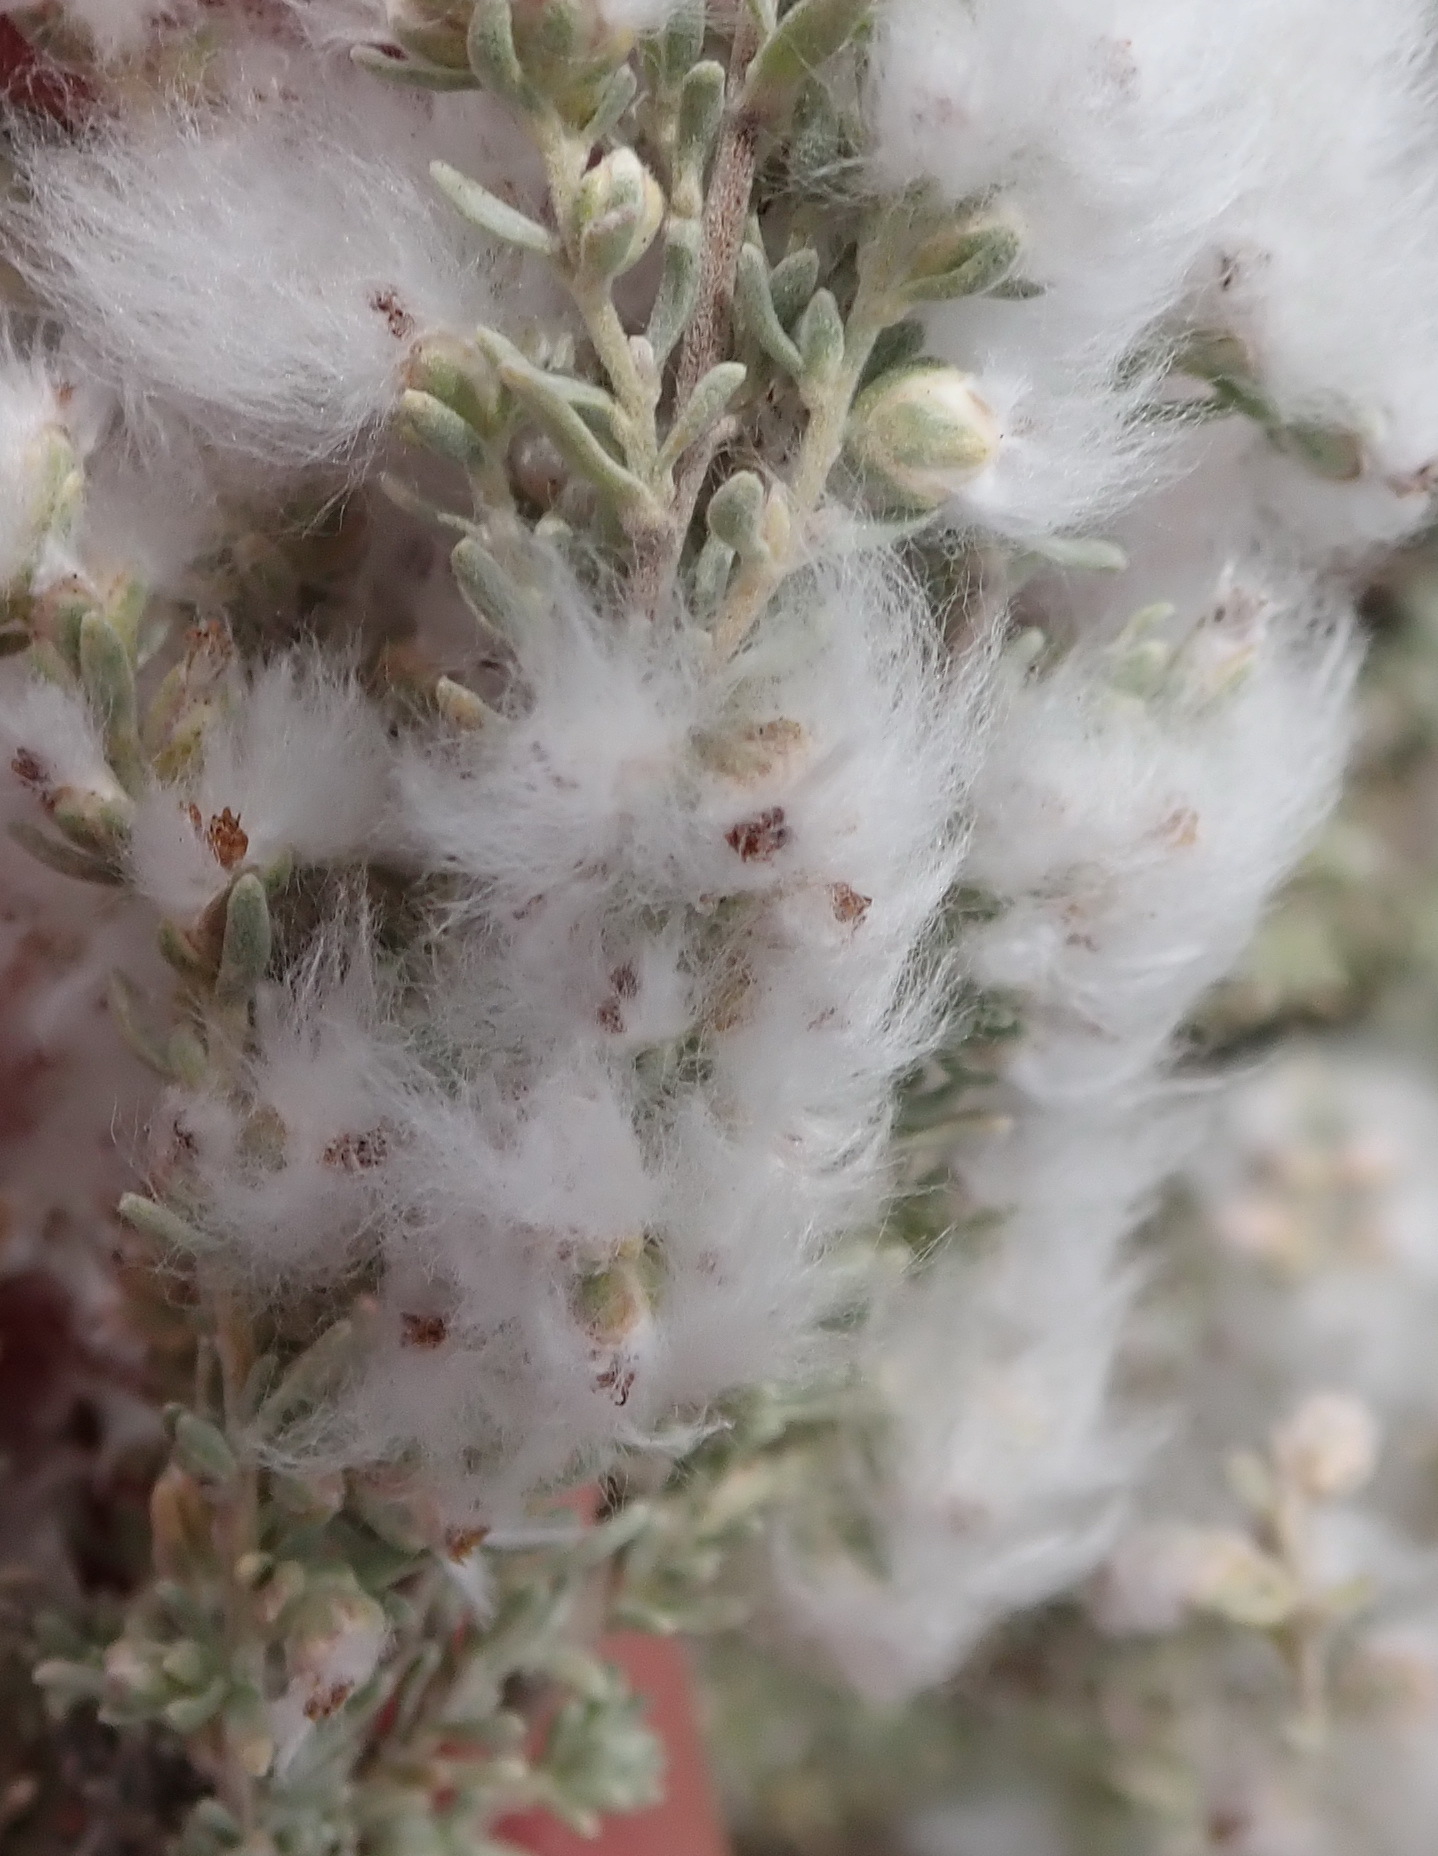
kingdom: Plantae
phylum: Tracheophyta
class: Magnoliopsida
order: Asterales
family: Asteraceae
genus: Eriocephalus
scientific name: Eriocephalus racemosus
